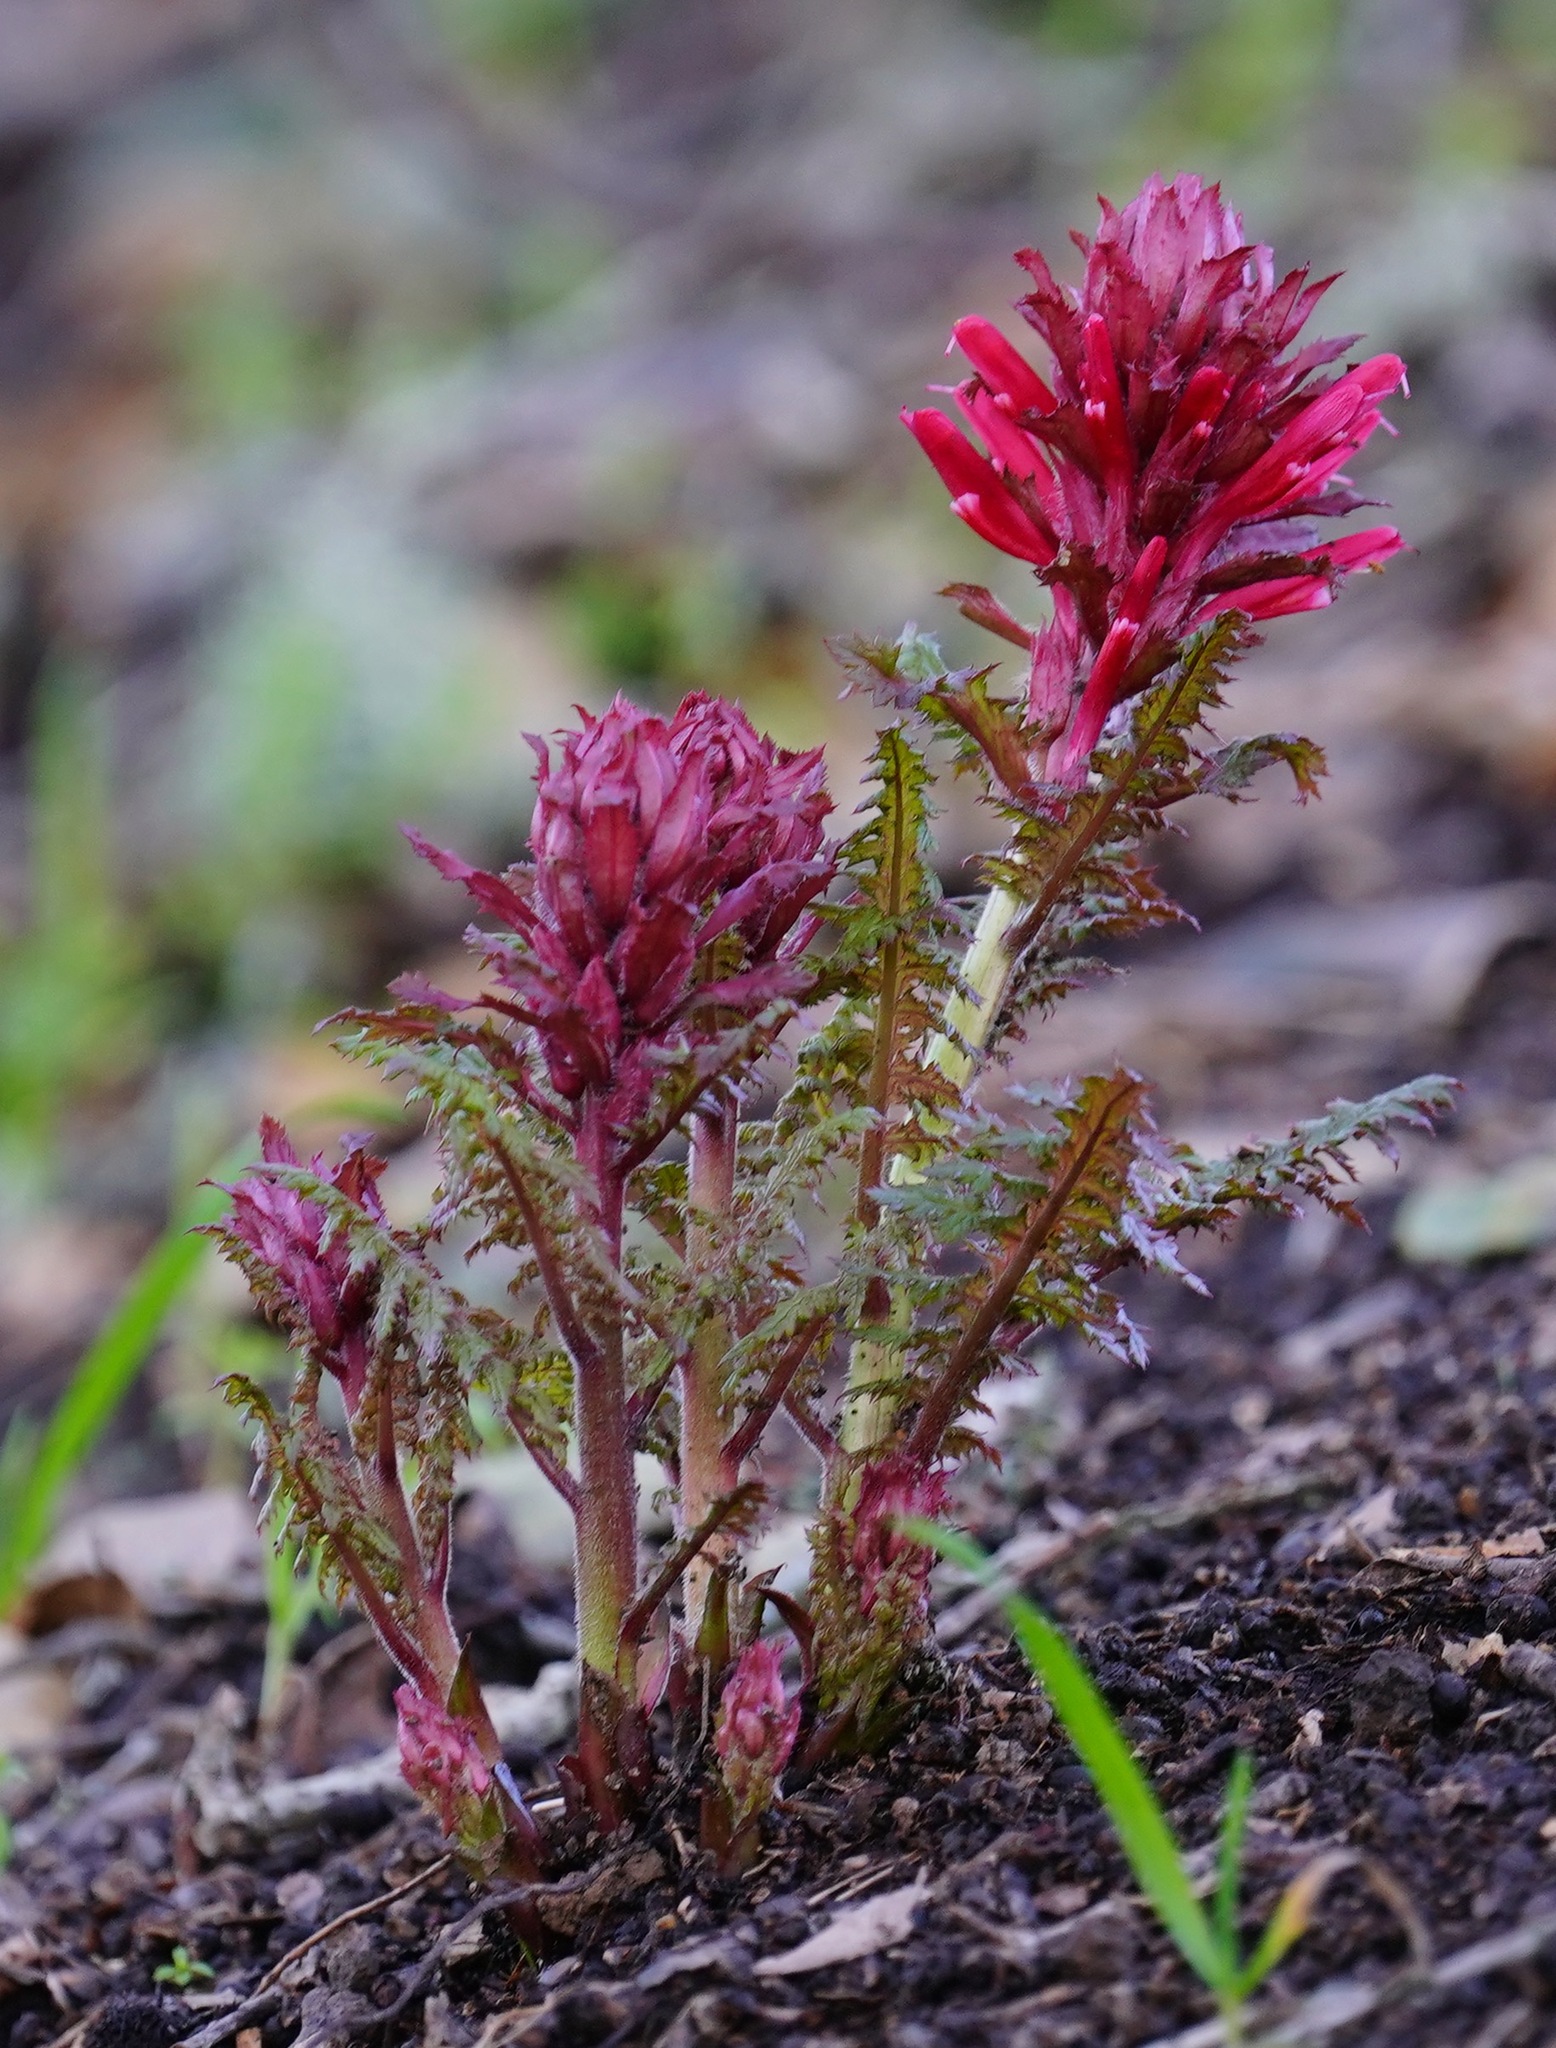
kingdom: Plantae
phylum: Tracheophyta
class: Magnoliopsida
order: Lamiales
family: Orobanchaceae
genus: Pedicularis
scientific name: Pedicularis densiflora
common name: Indian warrior
